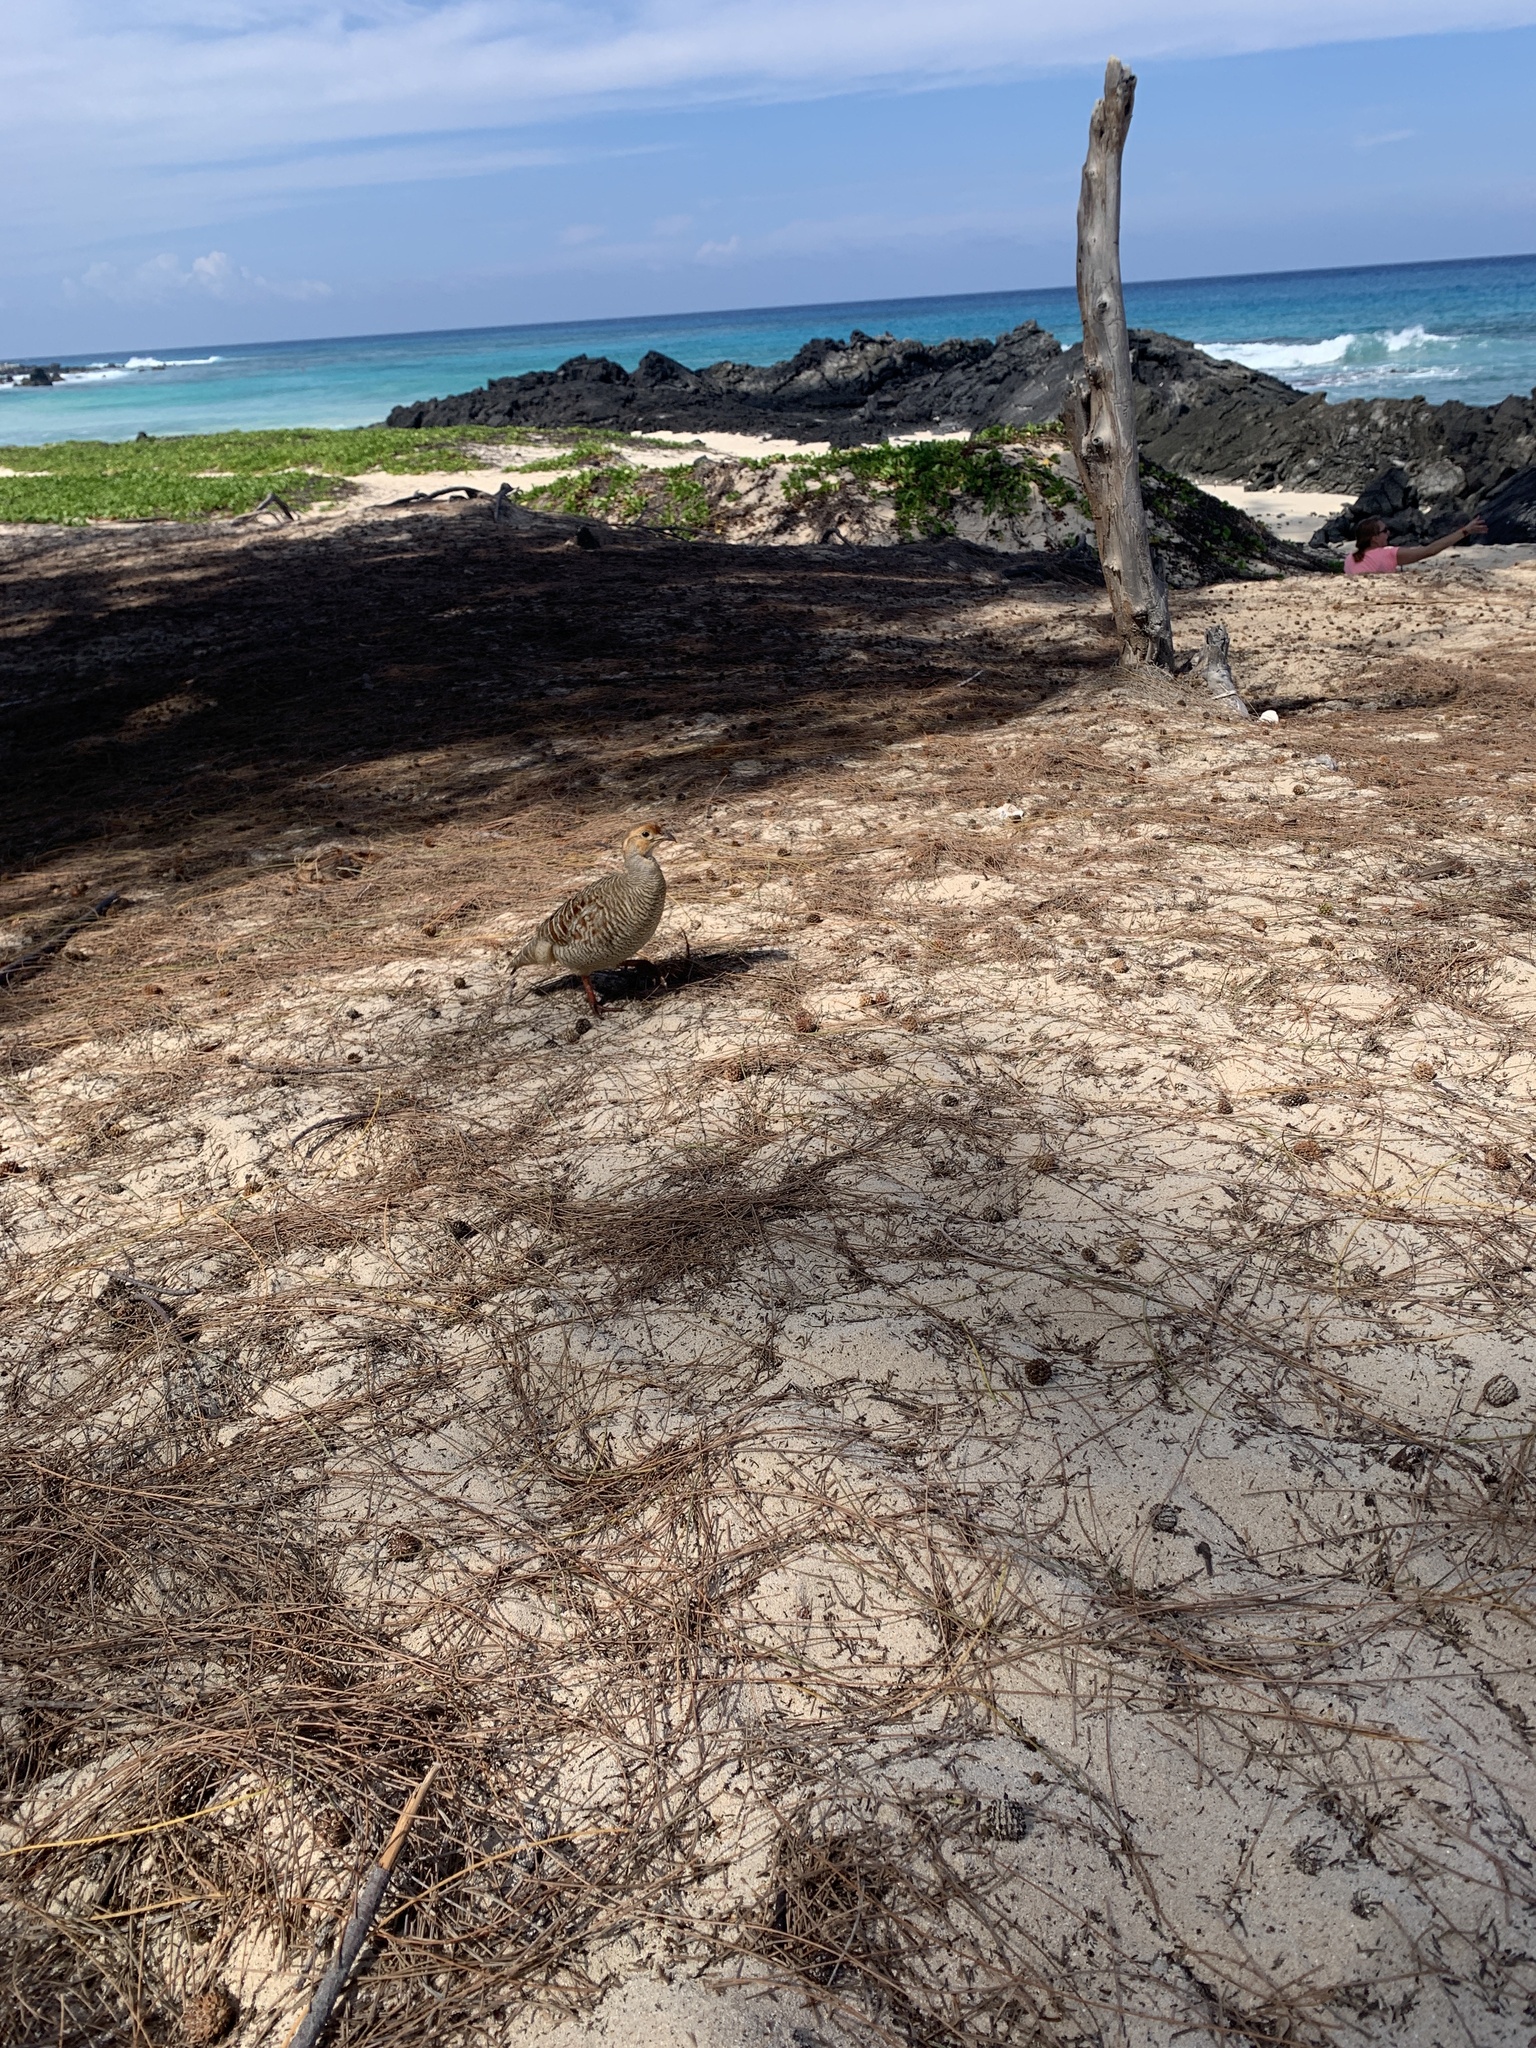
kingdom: Animalia
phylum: Chordata
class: Aves
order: Galliformes
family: Phasianidae
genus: Ortygornis
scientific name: Ortygornis pondicerianus
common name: Grey francolin
